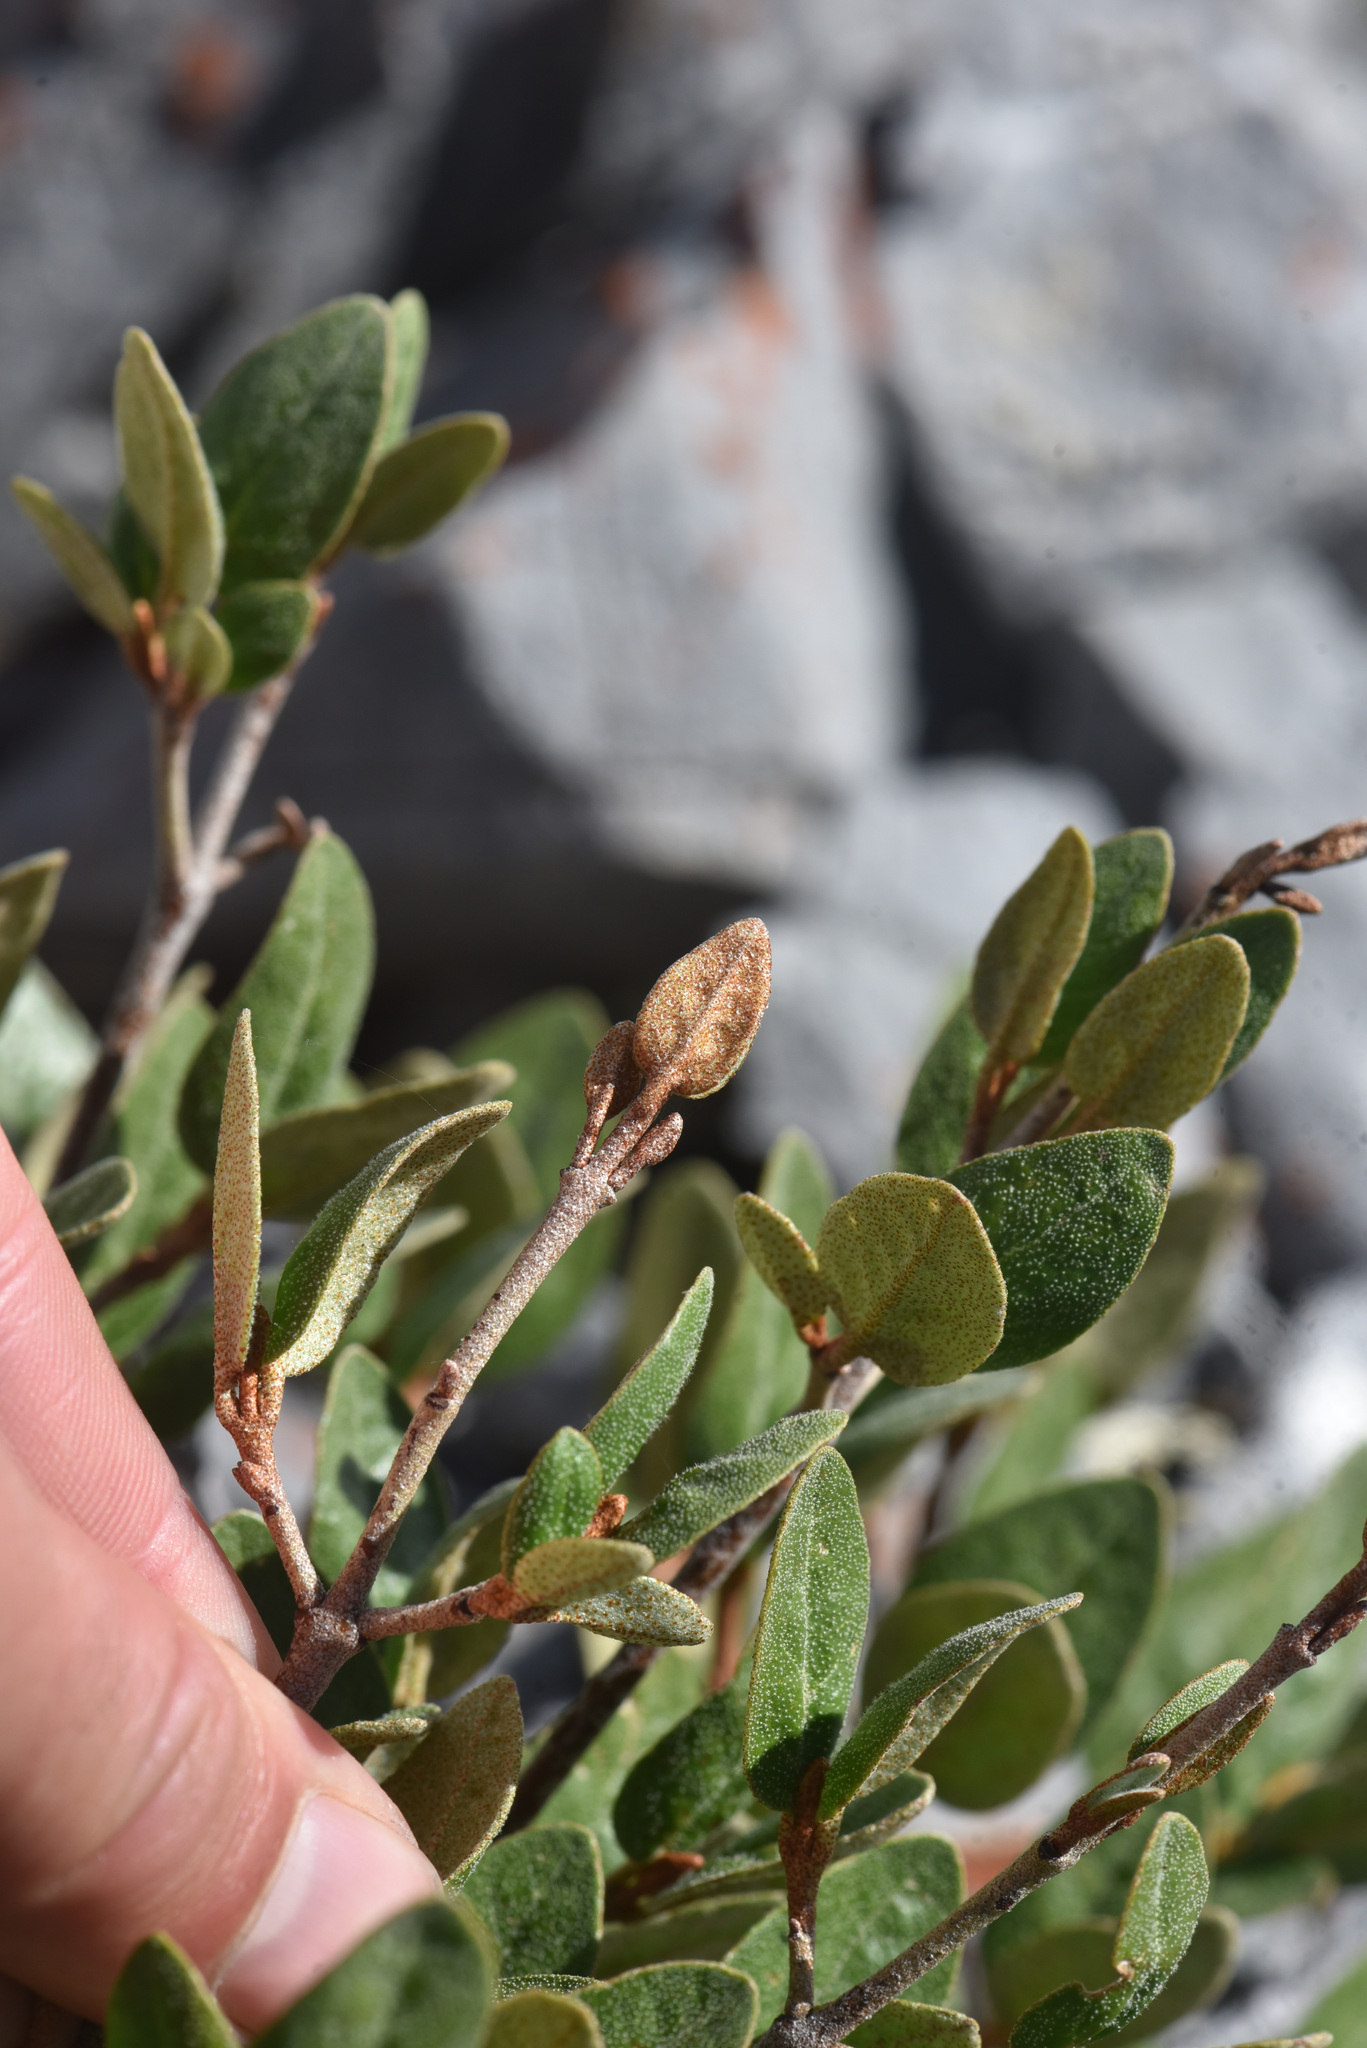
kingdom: Plantae
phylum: Tracheophyta
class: Magnoliopsida
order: Rosales
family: Elaeagnaceae
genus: Shepherdia
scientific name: Shepherdia canadensis
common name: Soapberry
